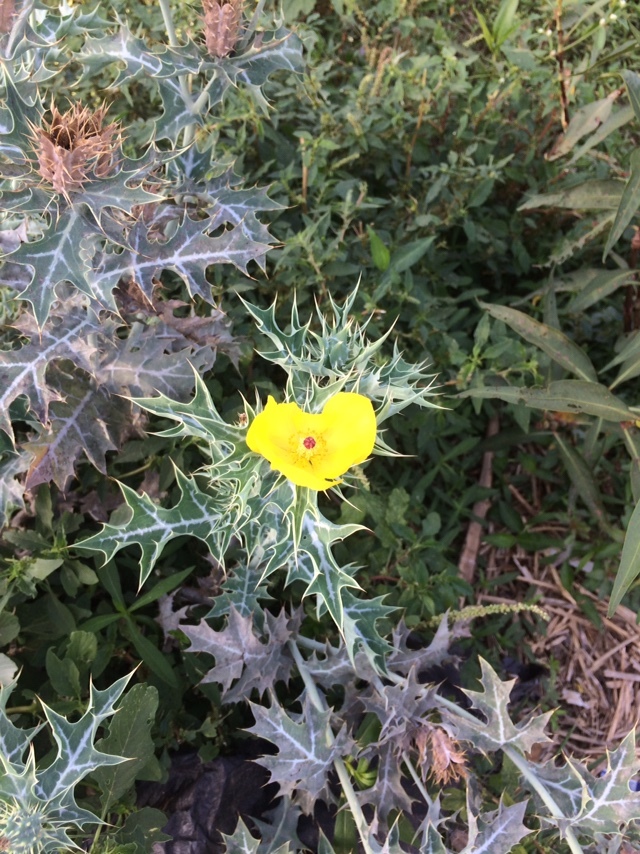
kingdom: Plantae
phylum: Tracheophyta
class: Magnoliopsida
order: Ranunculales
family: Papaveraceae
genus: Argemone
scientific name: Argemone mexicana
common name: Mexican poppy
